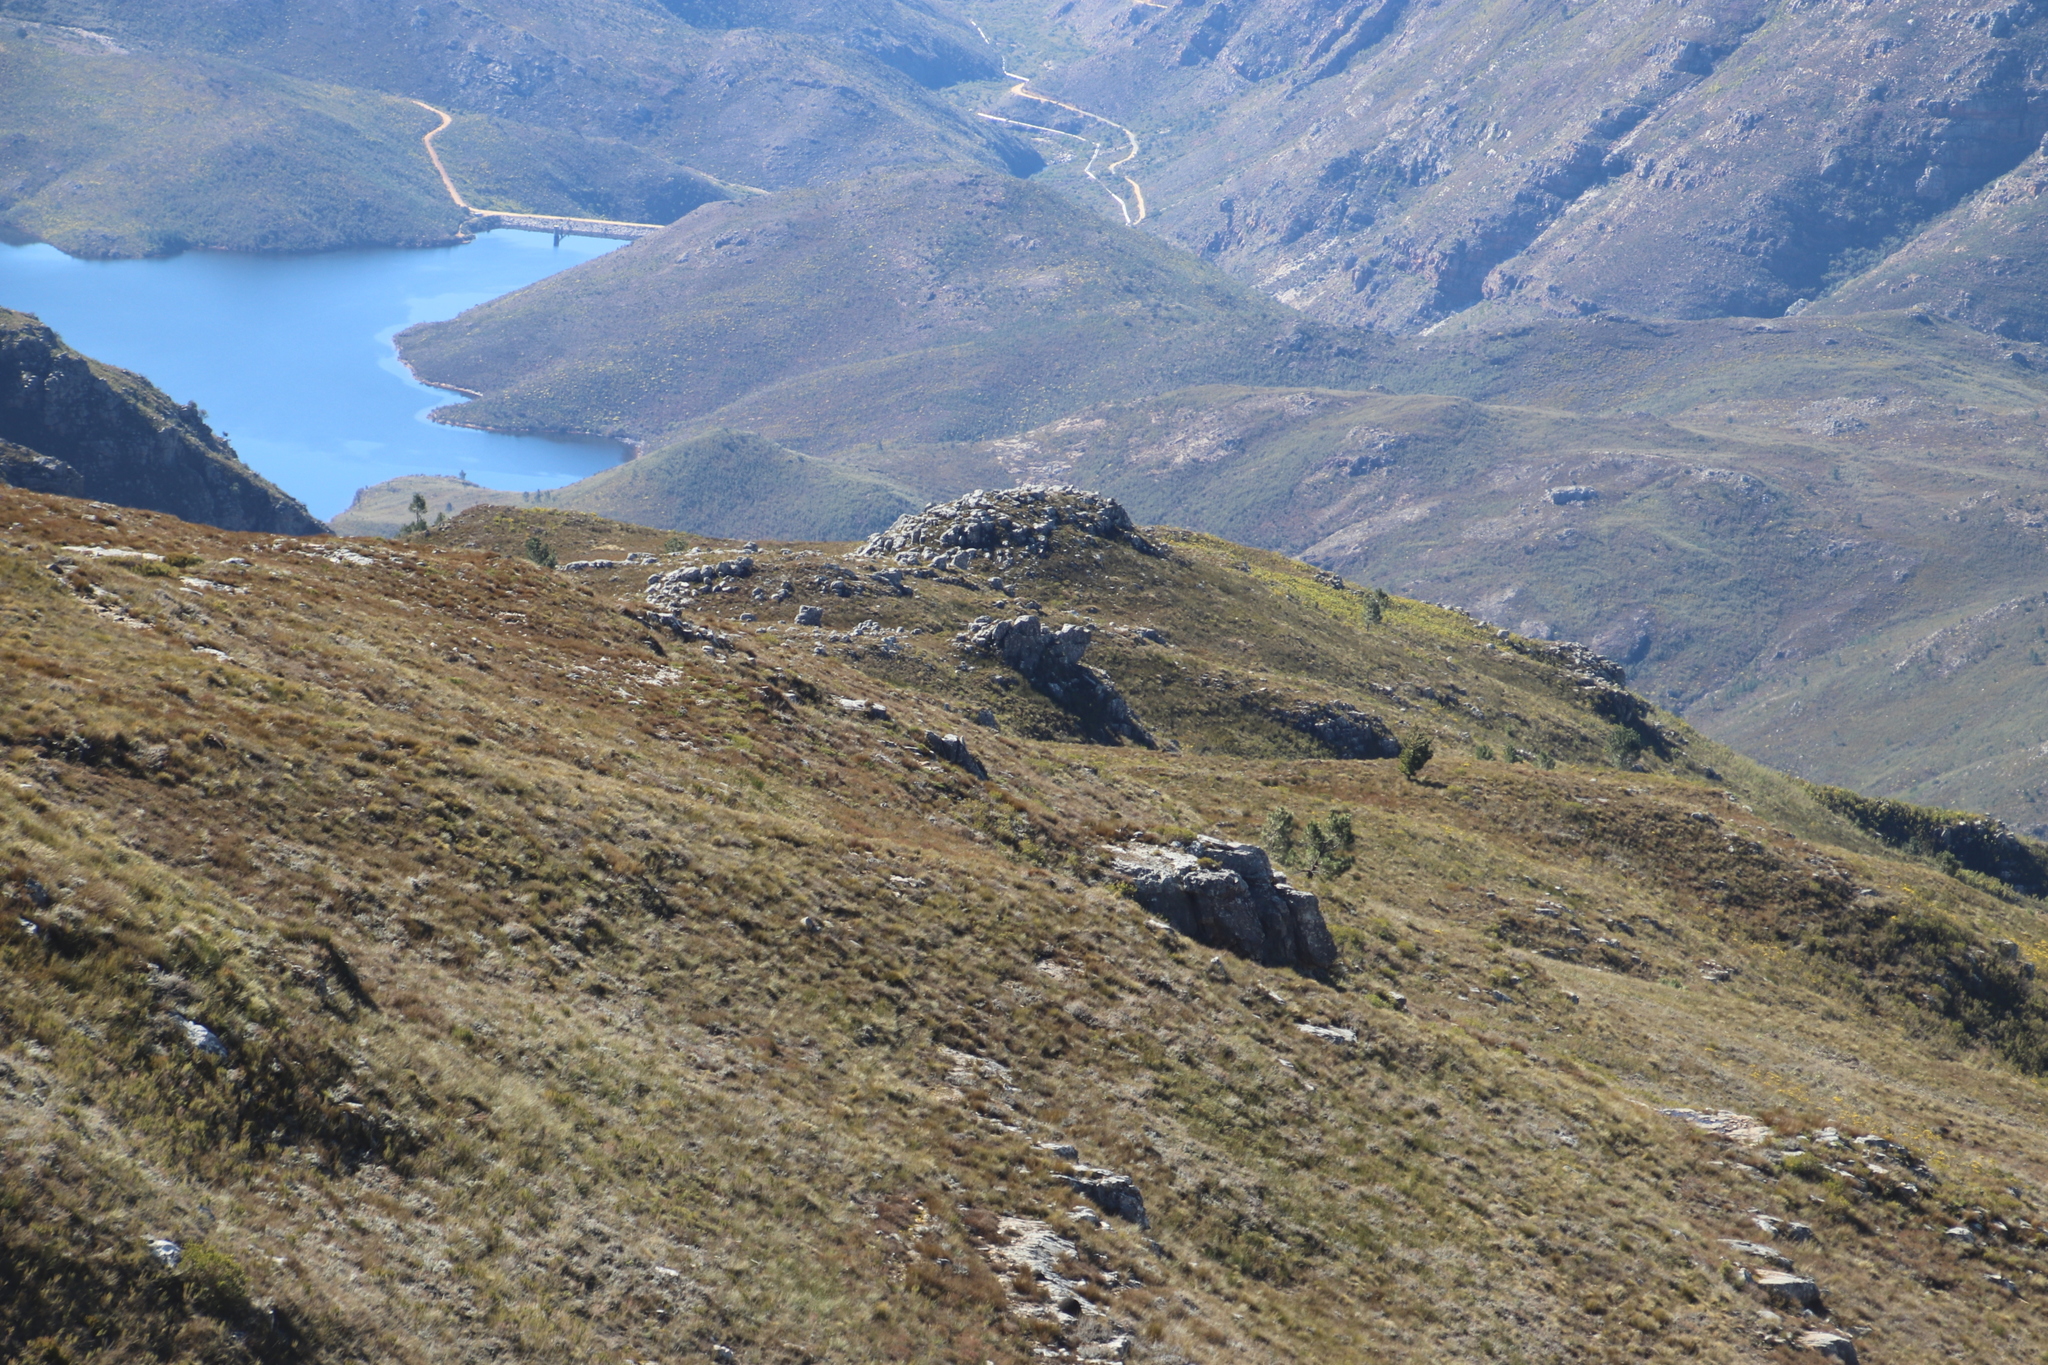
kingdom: Plantae
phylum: Tracheophyta
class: Pinopsida
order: Pinales
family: Pinaceae
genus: Pinus
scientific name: Pinus pinaster
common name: Maritime pine
